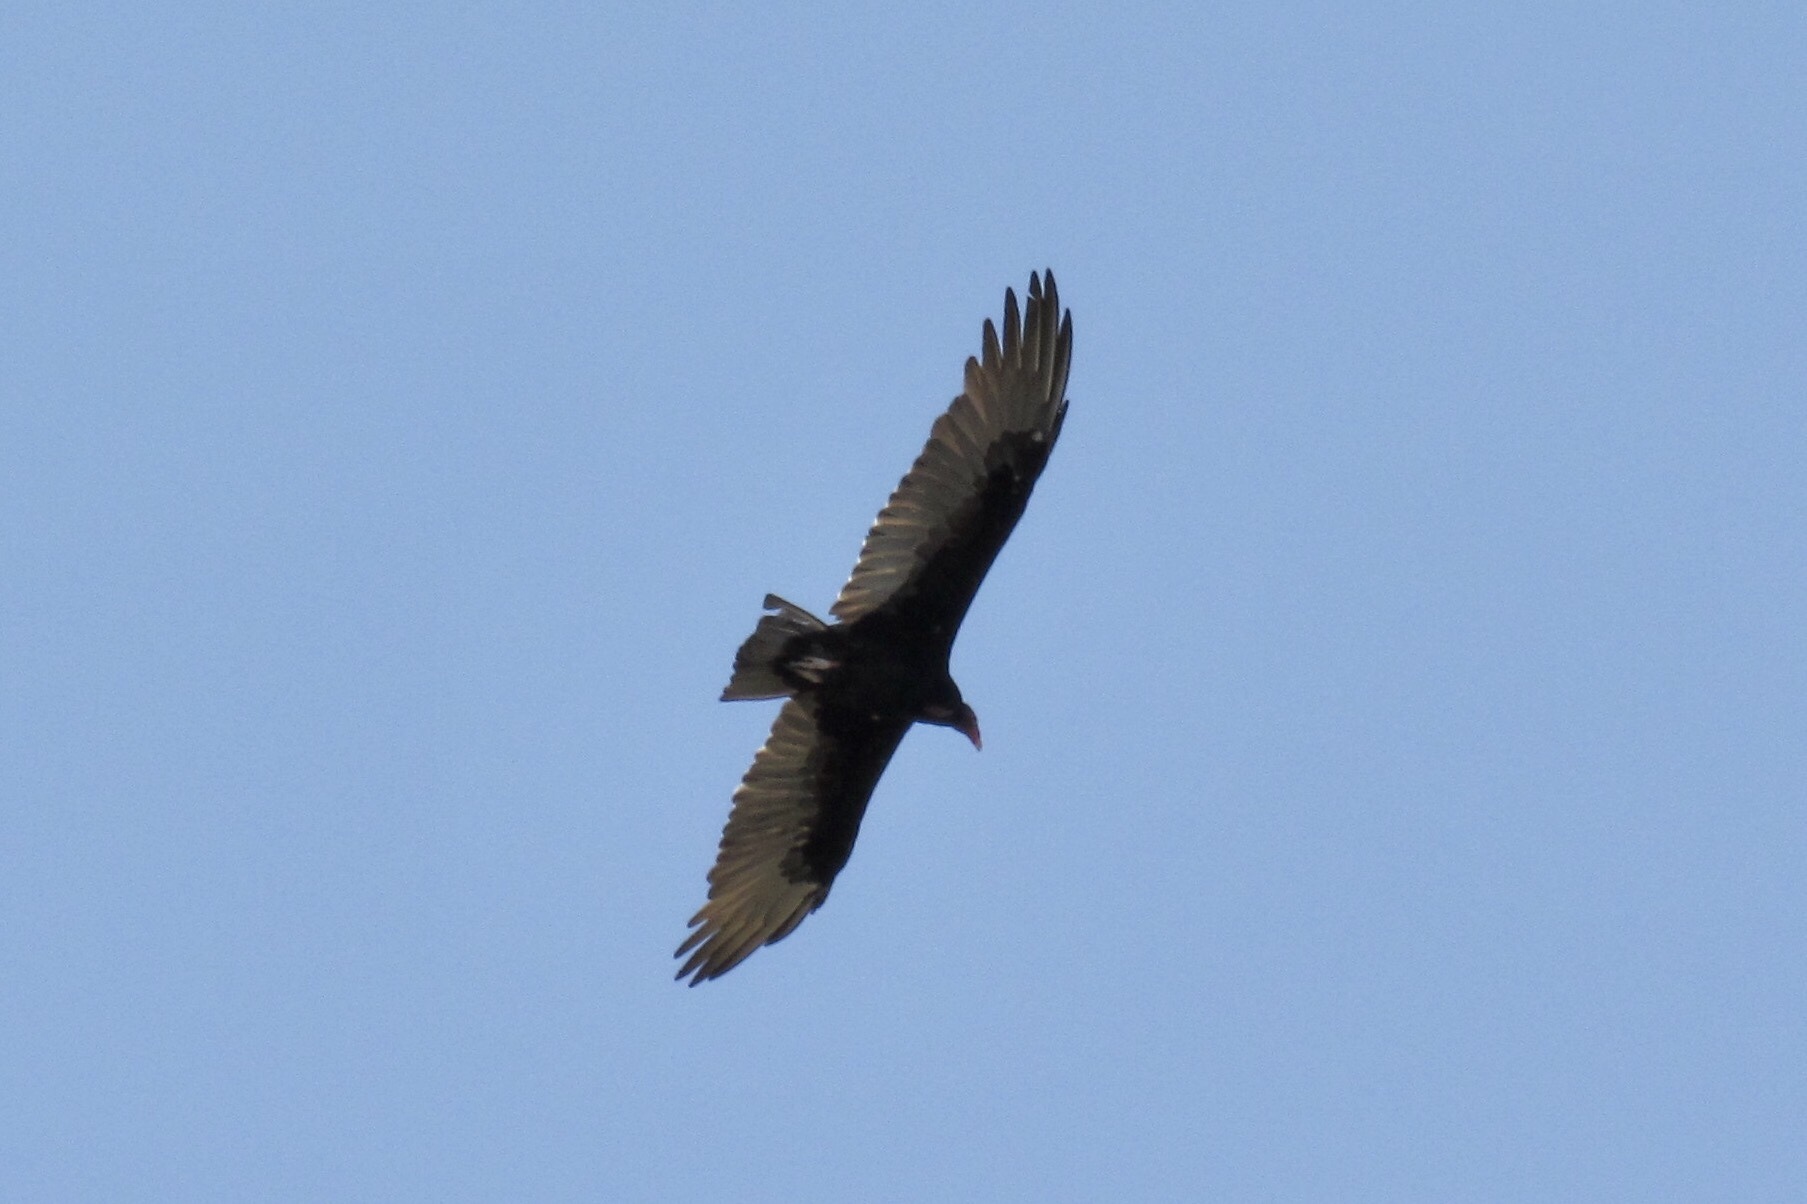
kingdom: Animalia
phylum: Chordata
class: Aves
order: Accipitriformes
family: Cathartidae
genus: Cathartes
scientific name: Cathartes aura
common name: Turkey vulture
